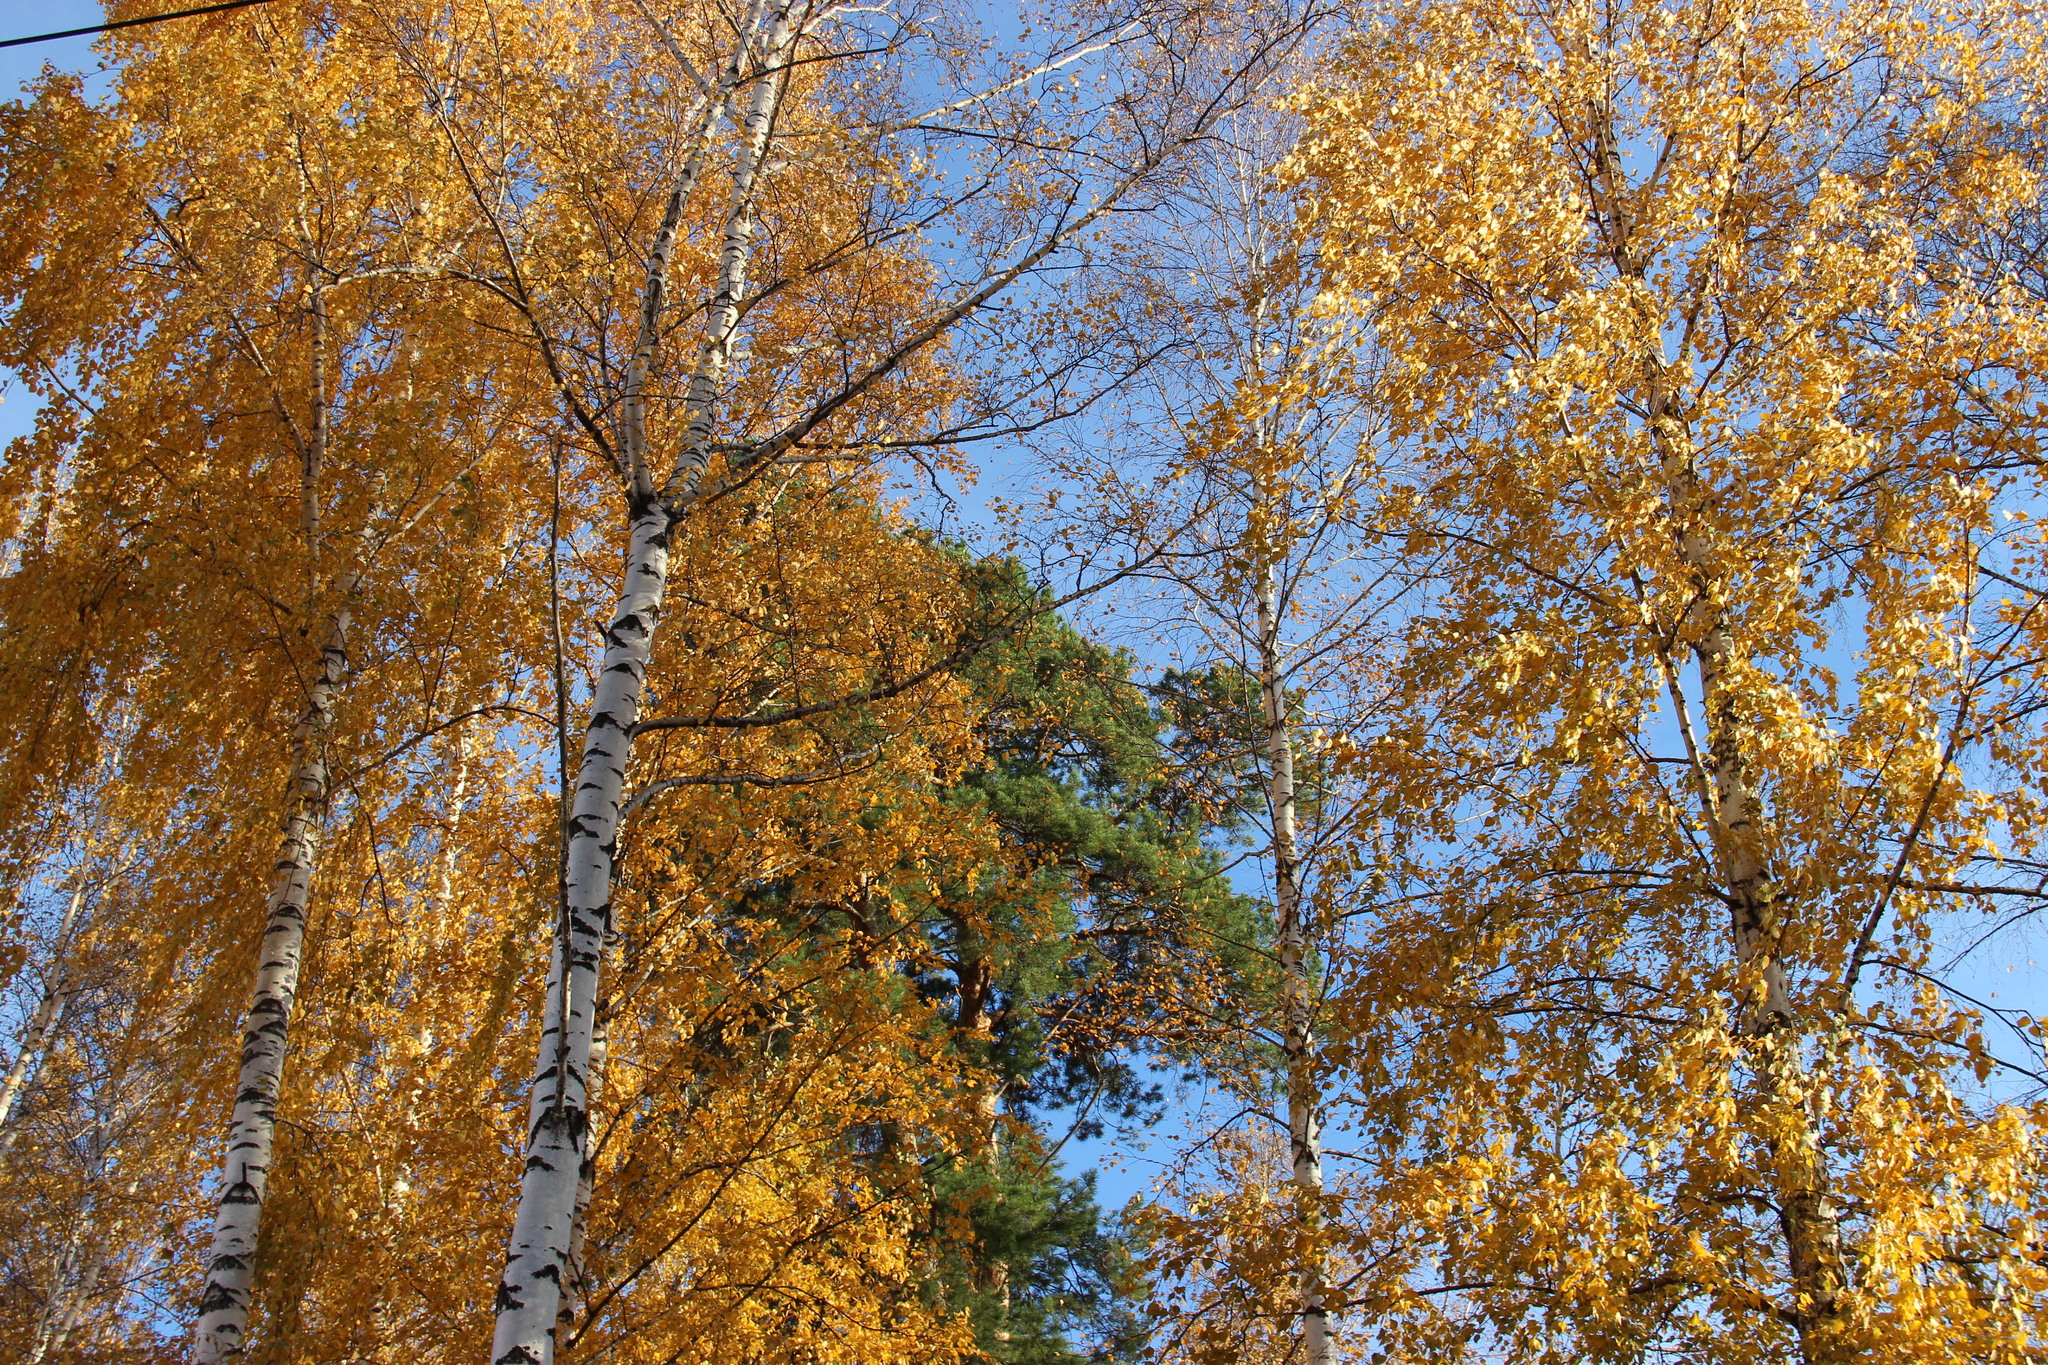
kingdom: Plantae
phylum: Tracheophyta
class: Magnoliopsida
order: Fagales
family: Betulaceae
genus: Betula
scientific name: Betula pendula
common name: Silver birch
